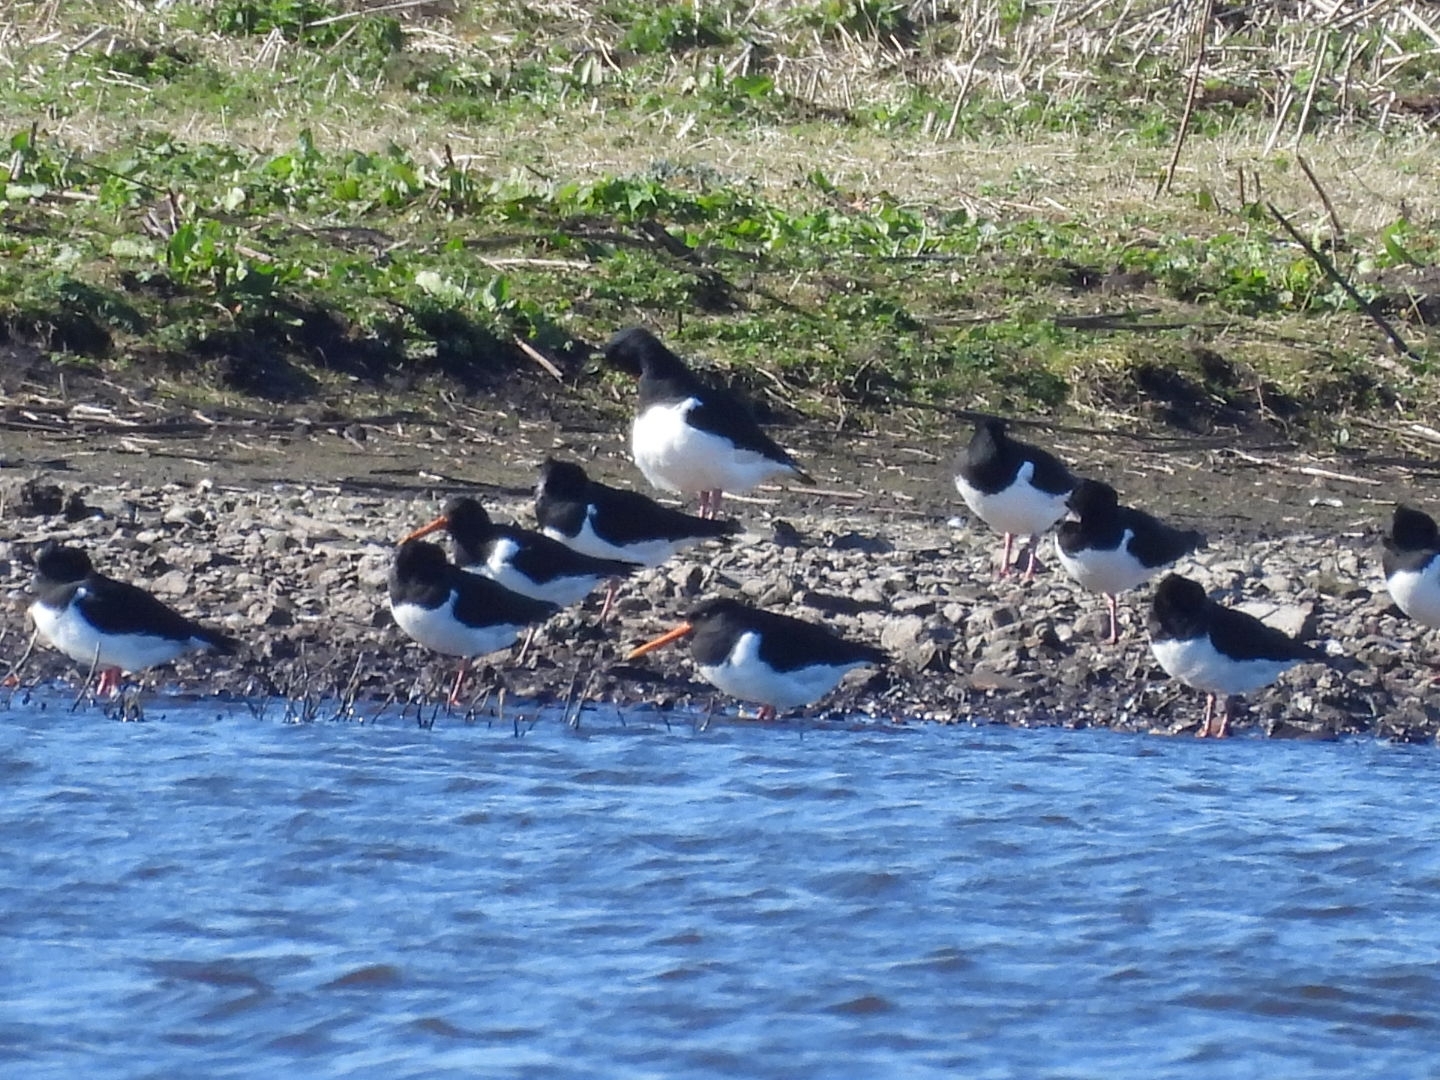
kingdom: Animalia
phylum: Chordata
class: Aves
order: Charadriiformes
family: Haematopodidae
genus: Haematopus
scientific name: Haematopus ostralegus
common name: Eurasian oystercatcher
